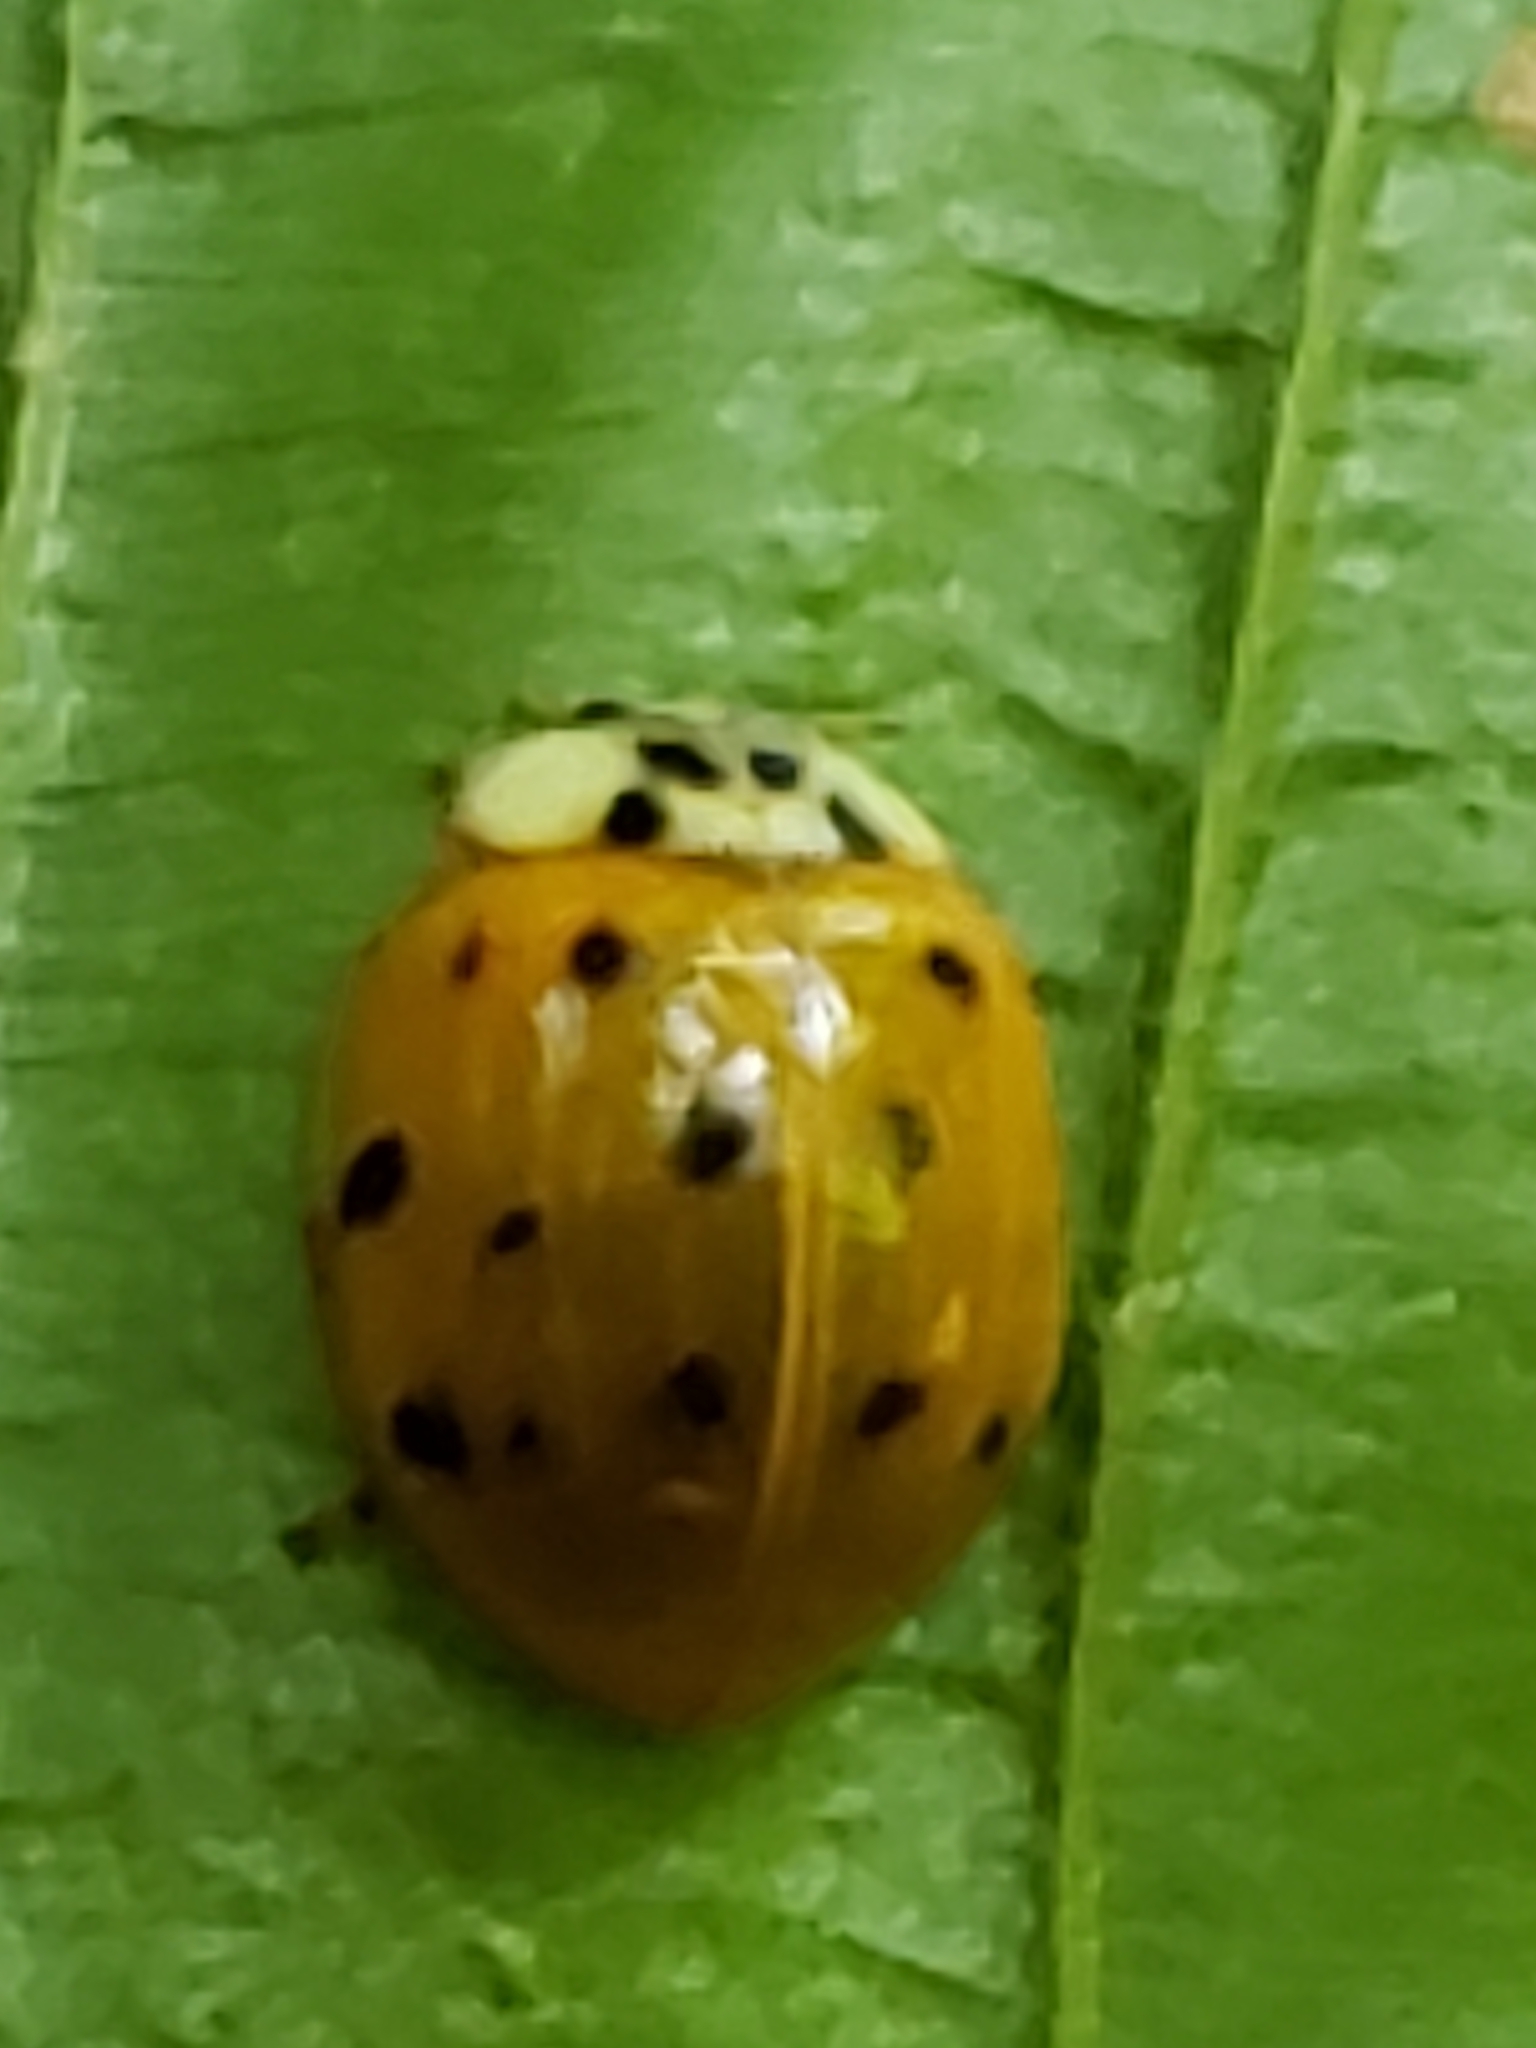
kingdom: Animalia
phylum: Arthropoda
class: Insecta
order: Coleoptera
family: Coccinellidae
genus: Harmonia
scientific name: Harmonia axyridis
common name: Harlequin ladybird
